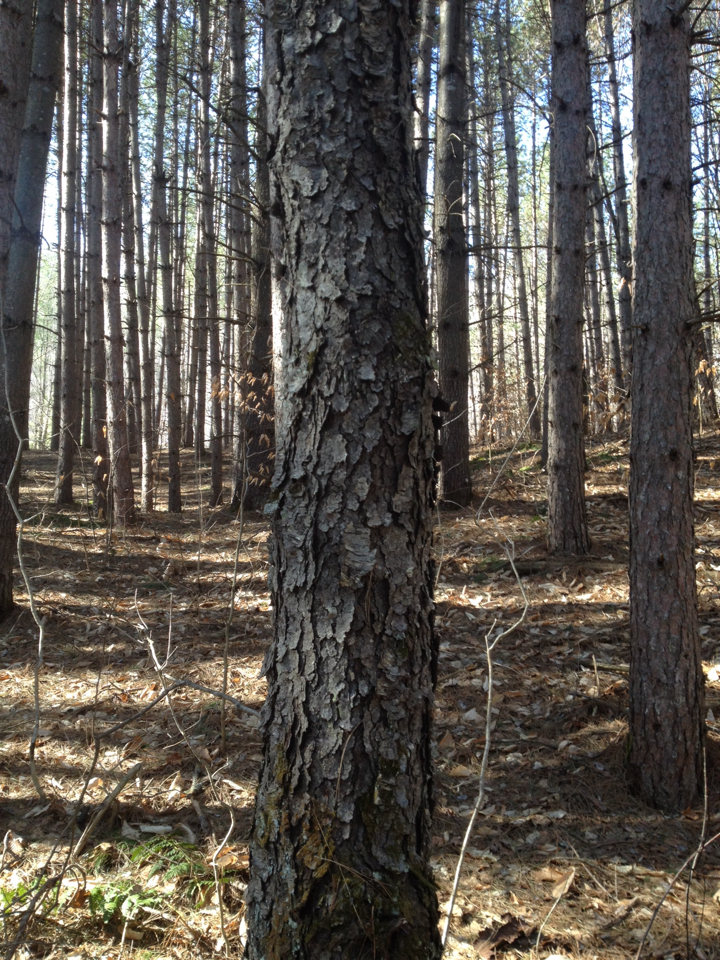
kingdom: Plantae
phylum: Tracheophyta
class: Magnoliopsida
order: Rosales
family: Rosaceae
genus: Prunus
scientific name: Prunus serotina
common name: Black cherry
